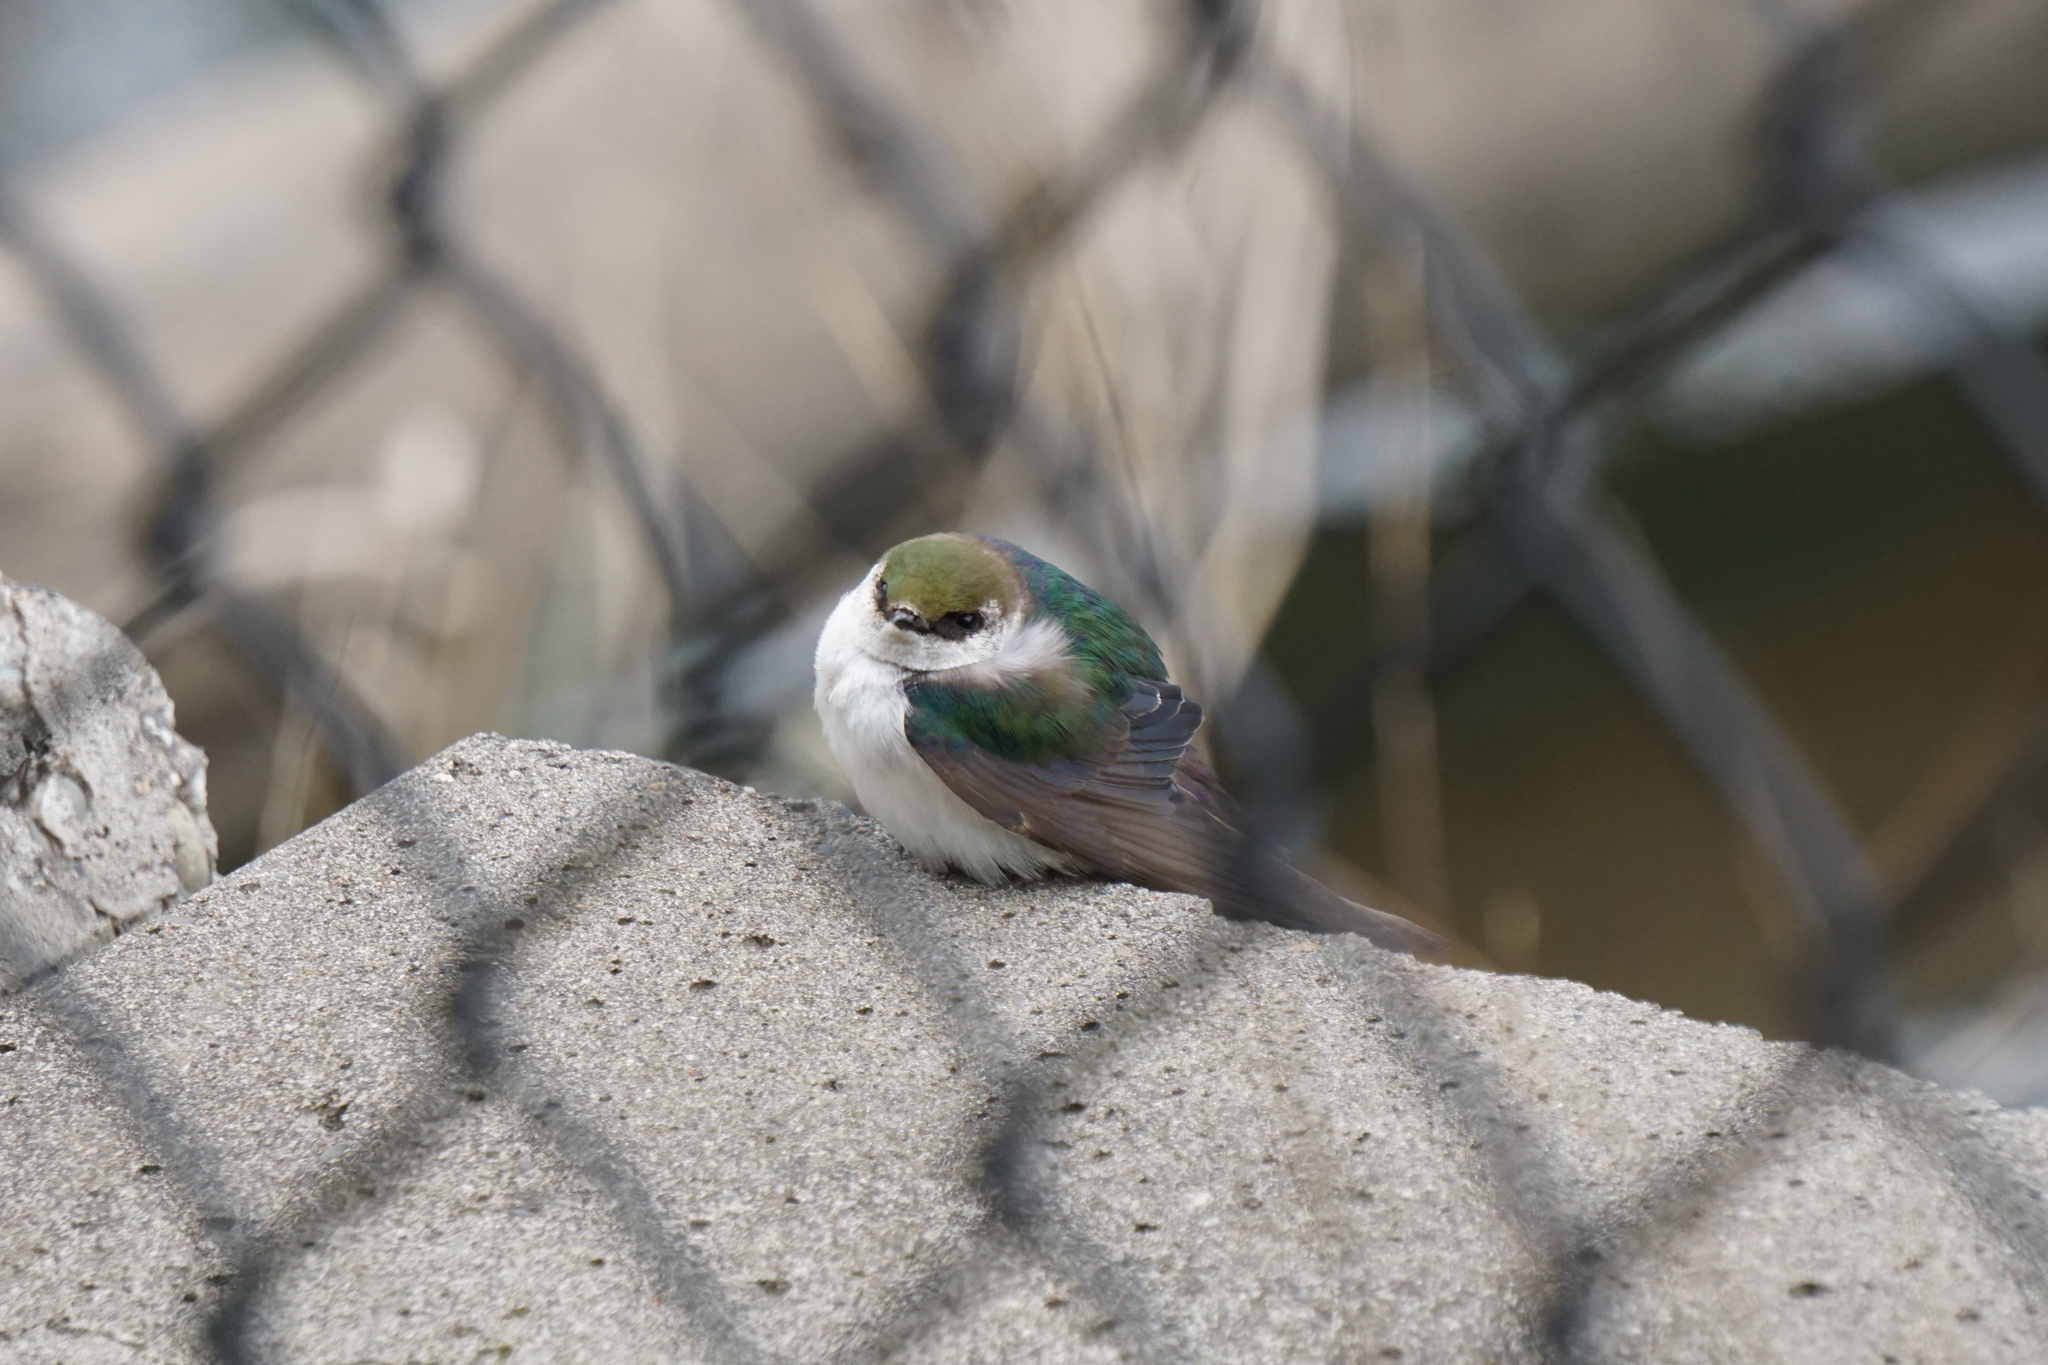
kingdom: Animalia
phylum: Chordata
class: Aves
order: Passeriformes
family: Hirundinidae
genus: Tachycineta
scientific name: Tachycineta thalassina
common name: Violet-green swallow
